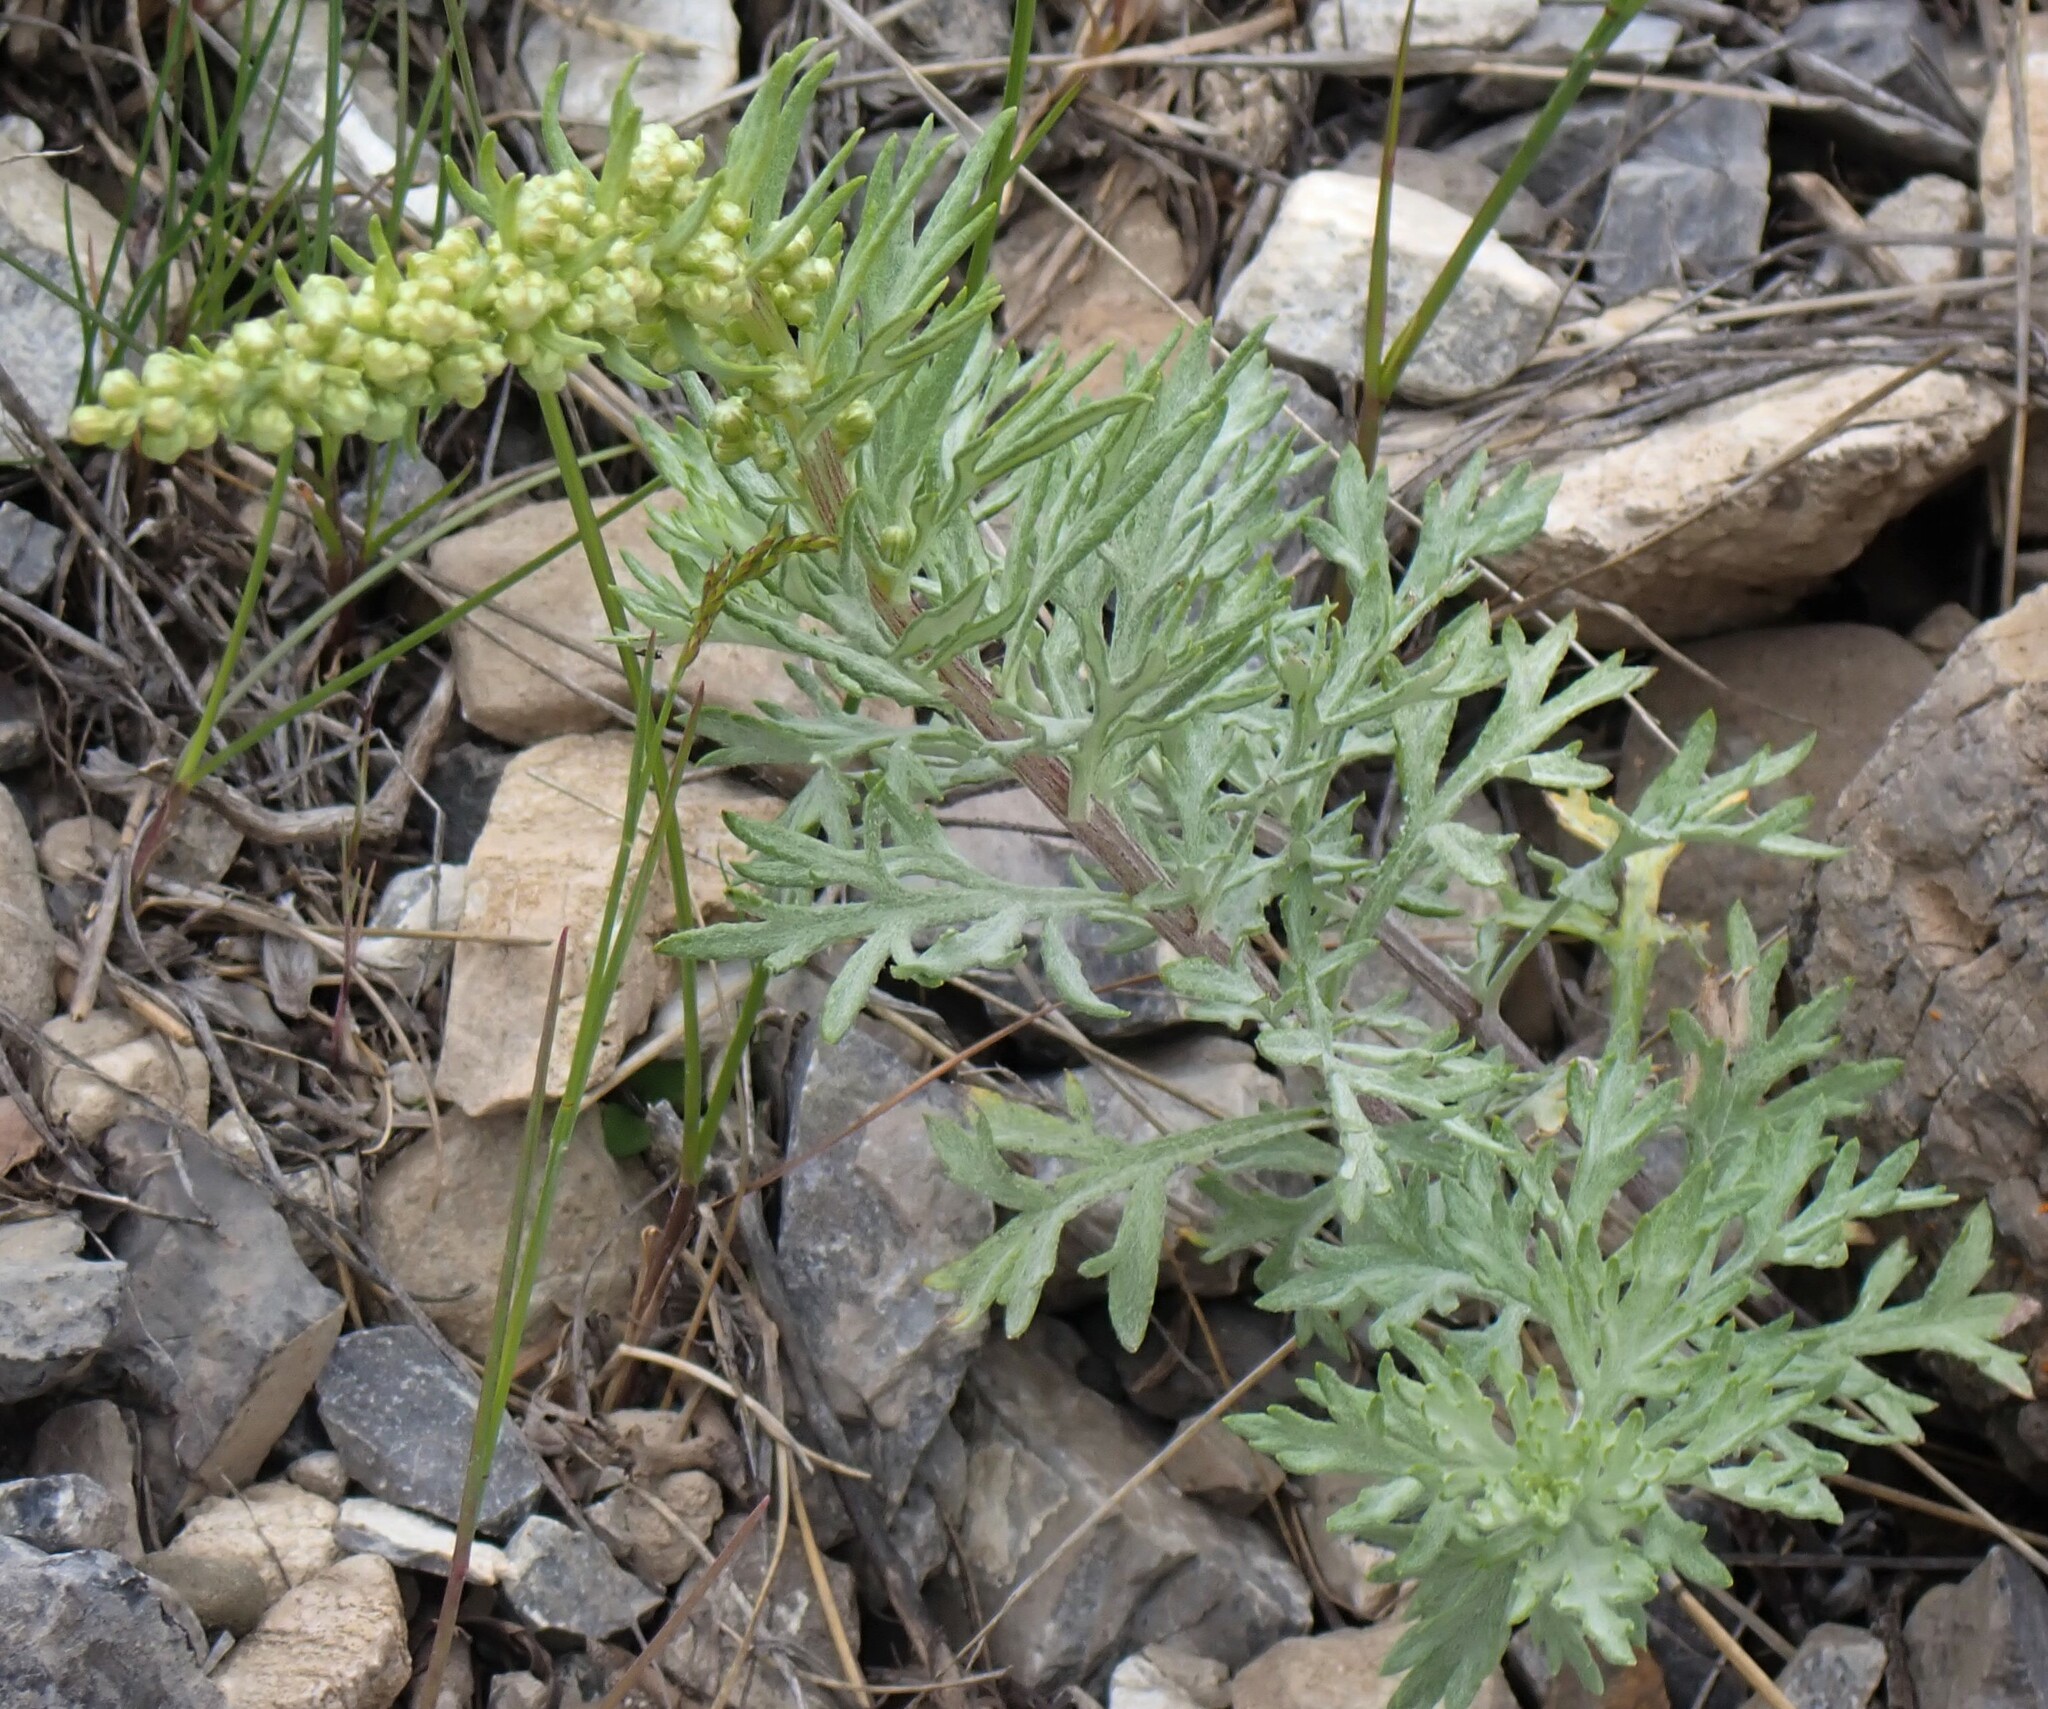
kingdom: Plantae
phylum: Tracheophyta
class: Magnoliopsida
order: Asterales
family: Asteraceae
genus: Artemisia
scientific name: Artemisia michauxiana
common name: Lemon sagewort
